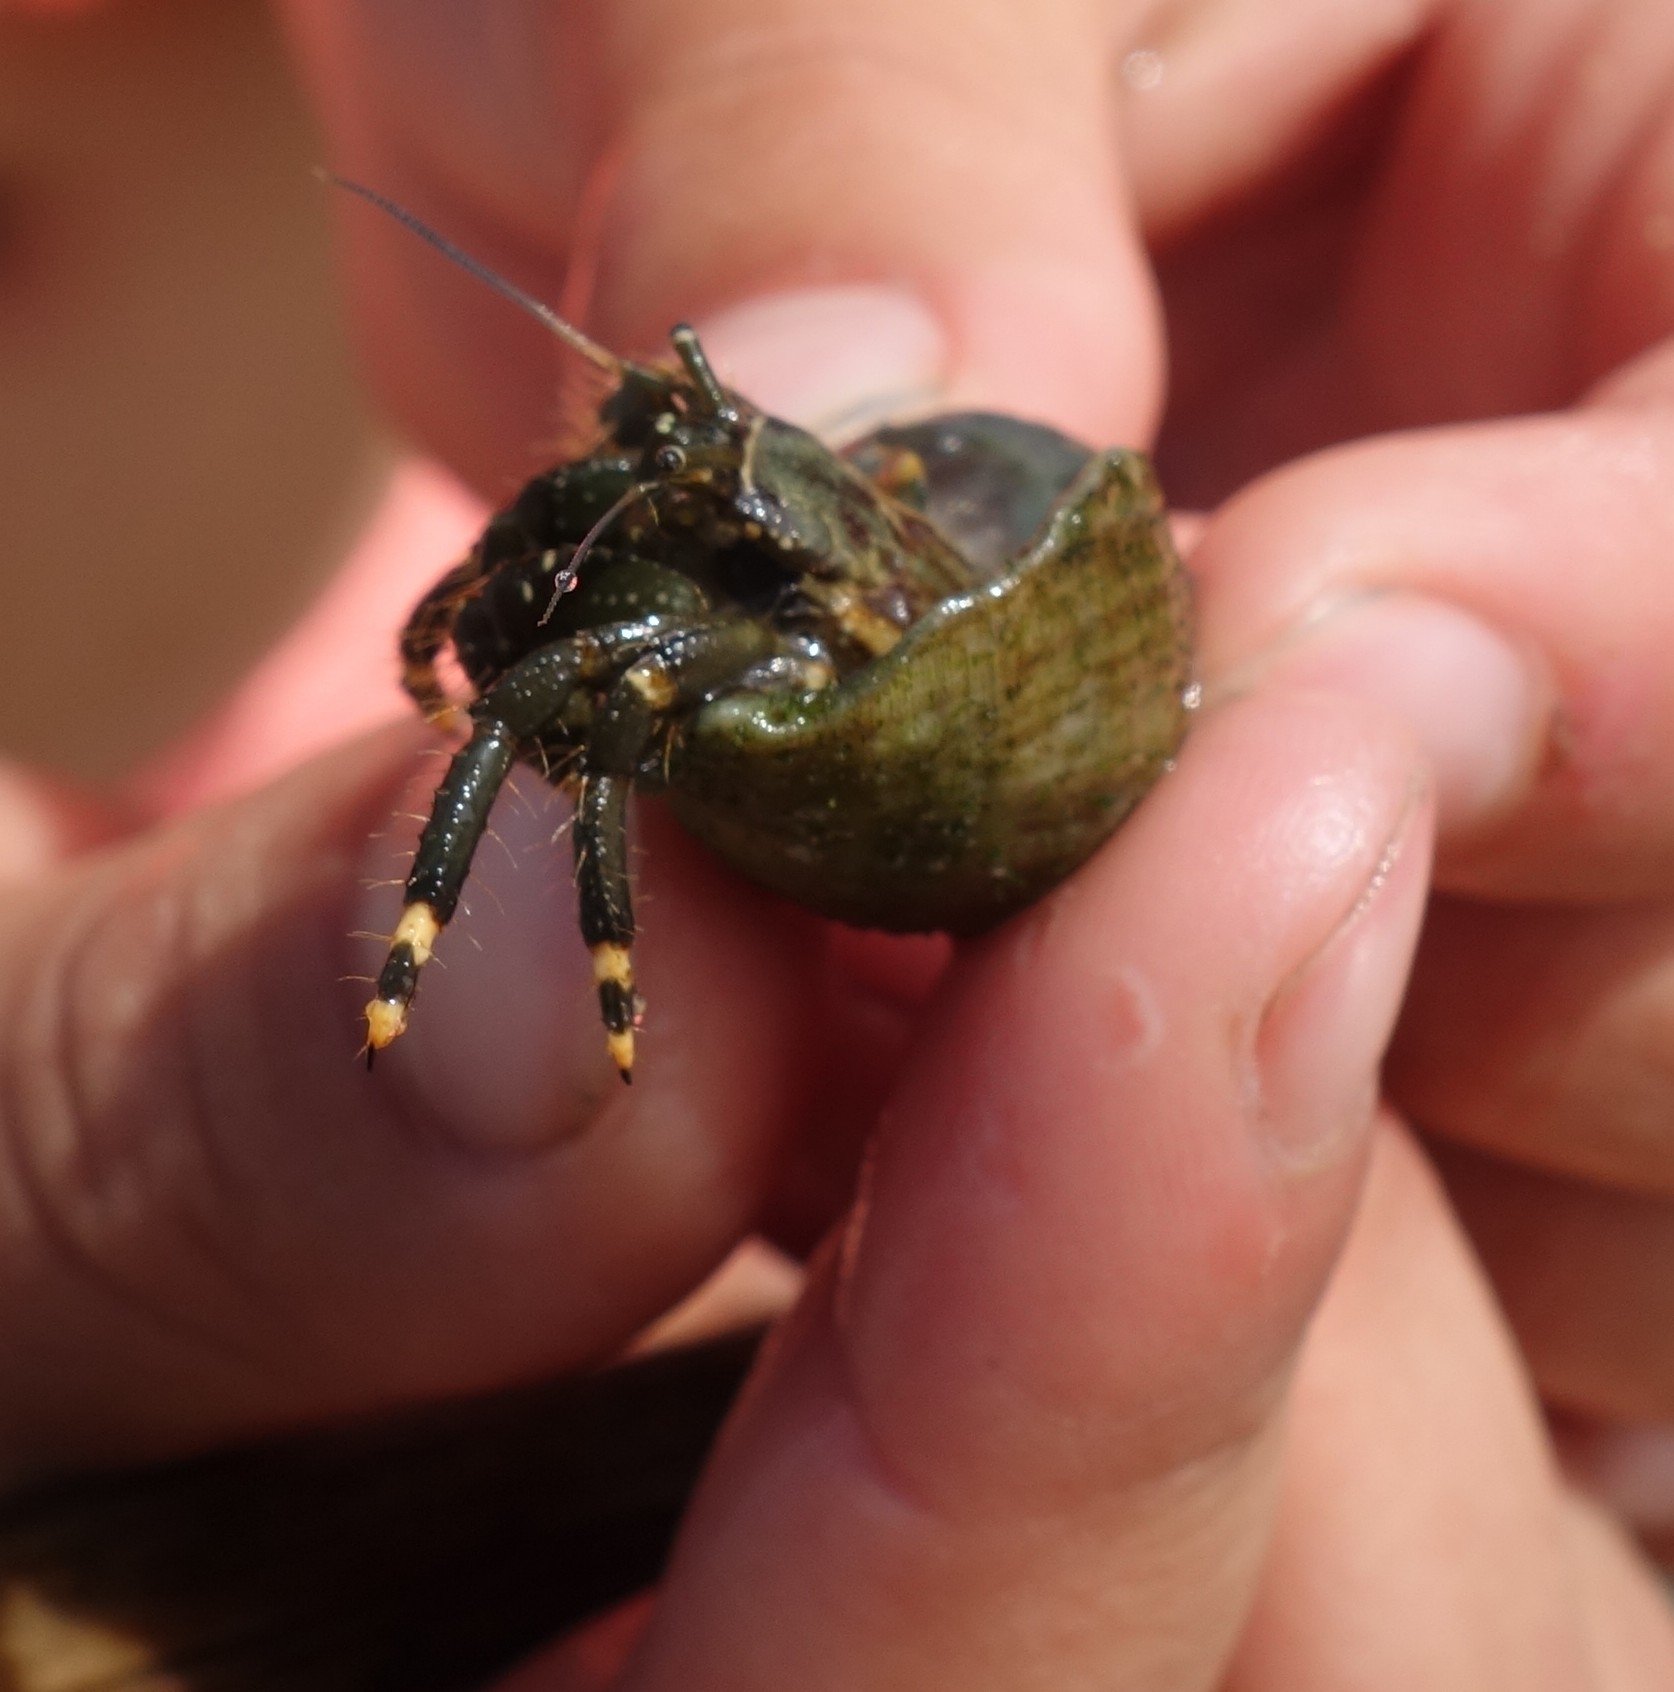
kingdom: Animalia
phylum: Arthropoda
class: Malacostraca
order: Decapoda
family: Diogenidae
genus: Clibanarius
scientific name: Clibanarius virescens
